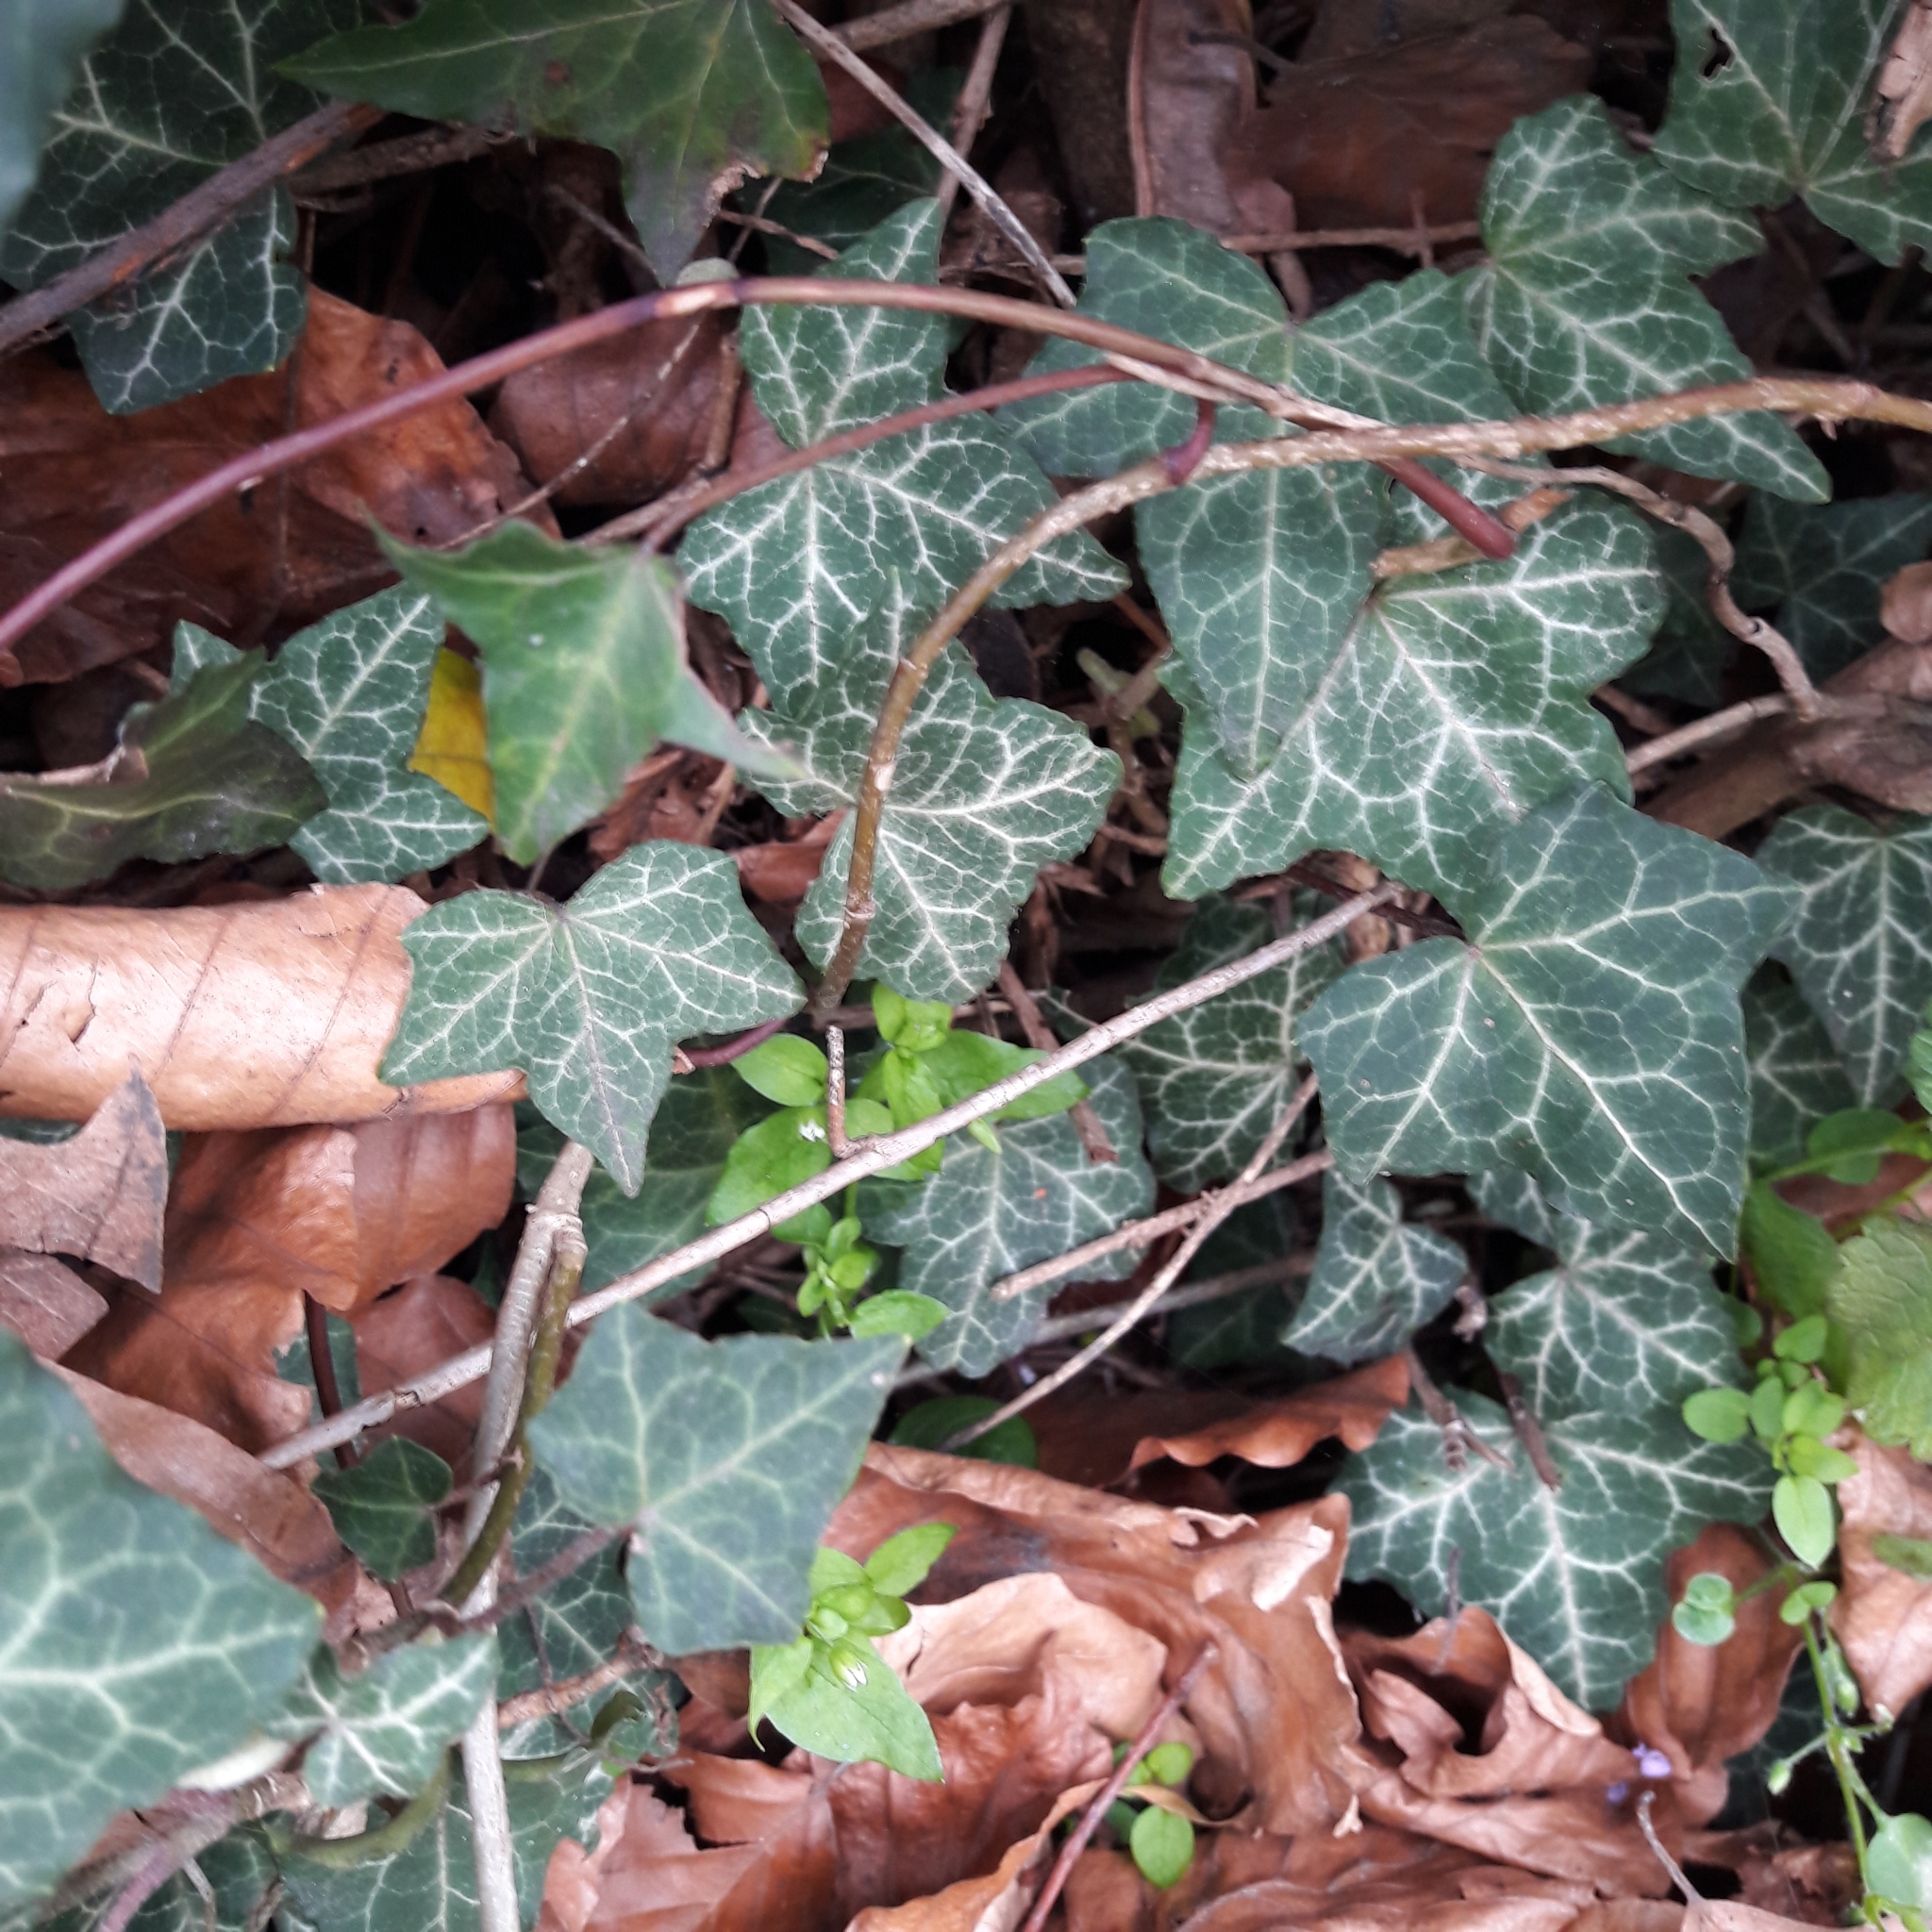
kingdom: Plantae
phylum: Tracheophyta
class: Magnoliopsida
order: Apiales
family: Araliaceae
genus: Hedera
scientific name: Hedera helix
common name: Ivy
